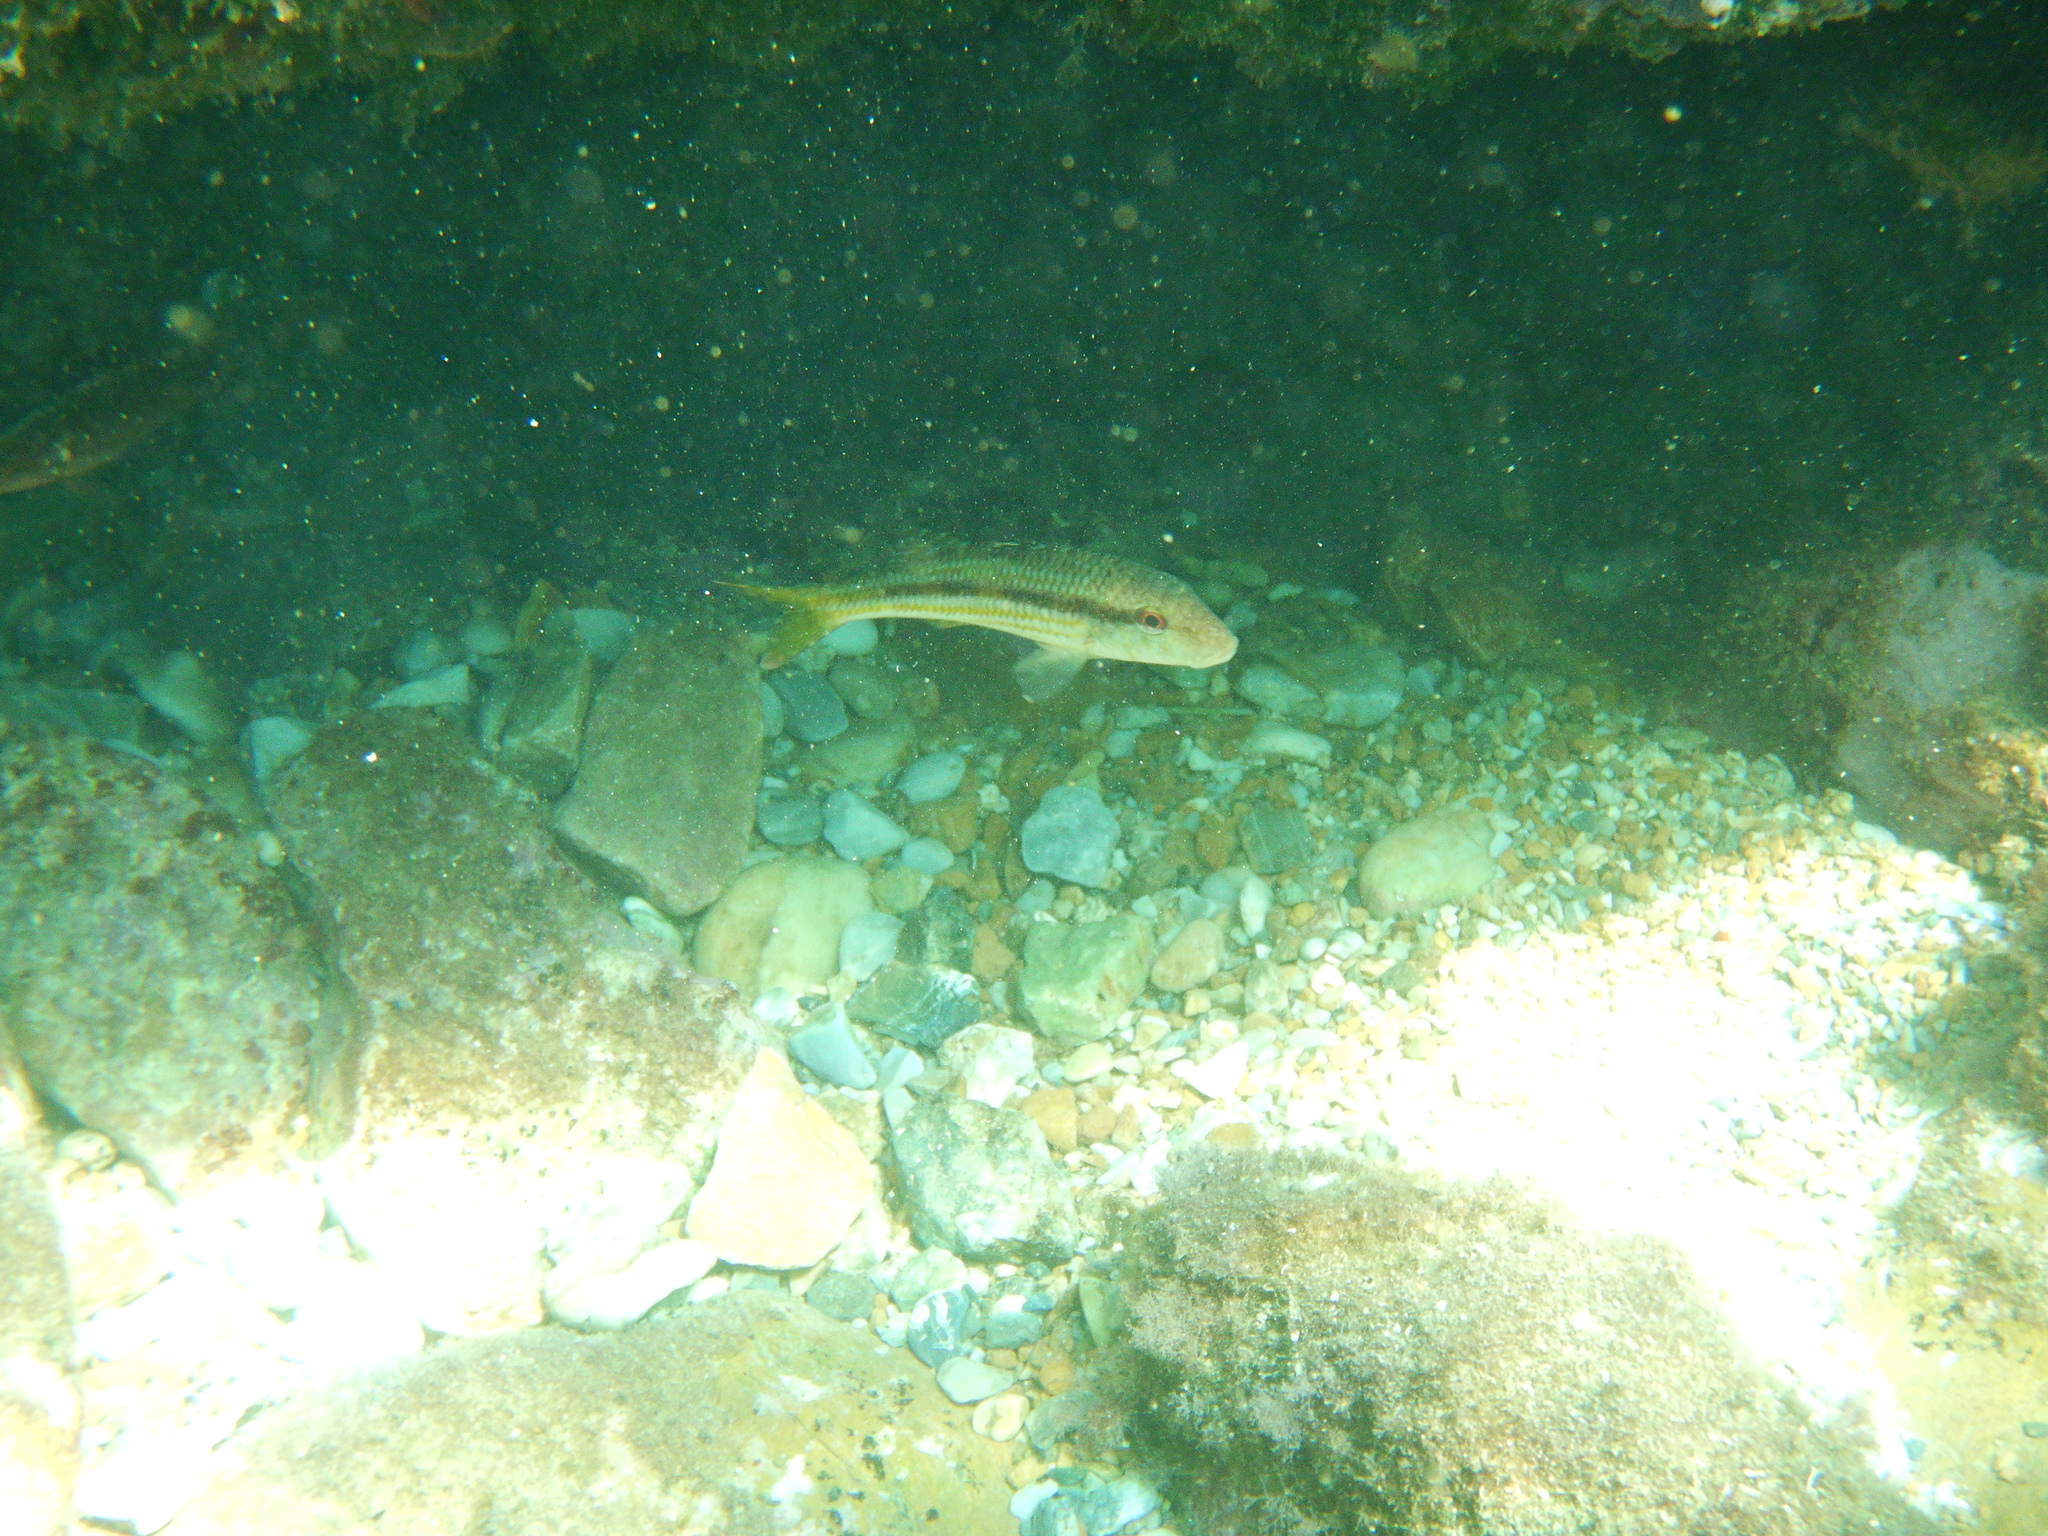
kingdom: Animalia
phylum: Chordata
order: Perciformes
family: Mullidae
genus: Mullus
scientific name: Mullus surmuletus
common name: Red mullet
